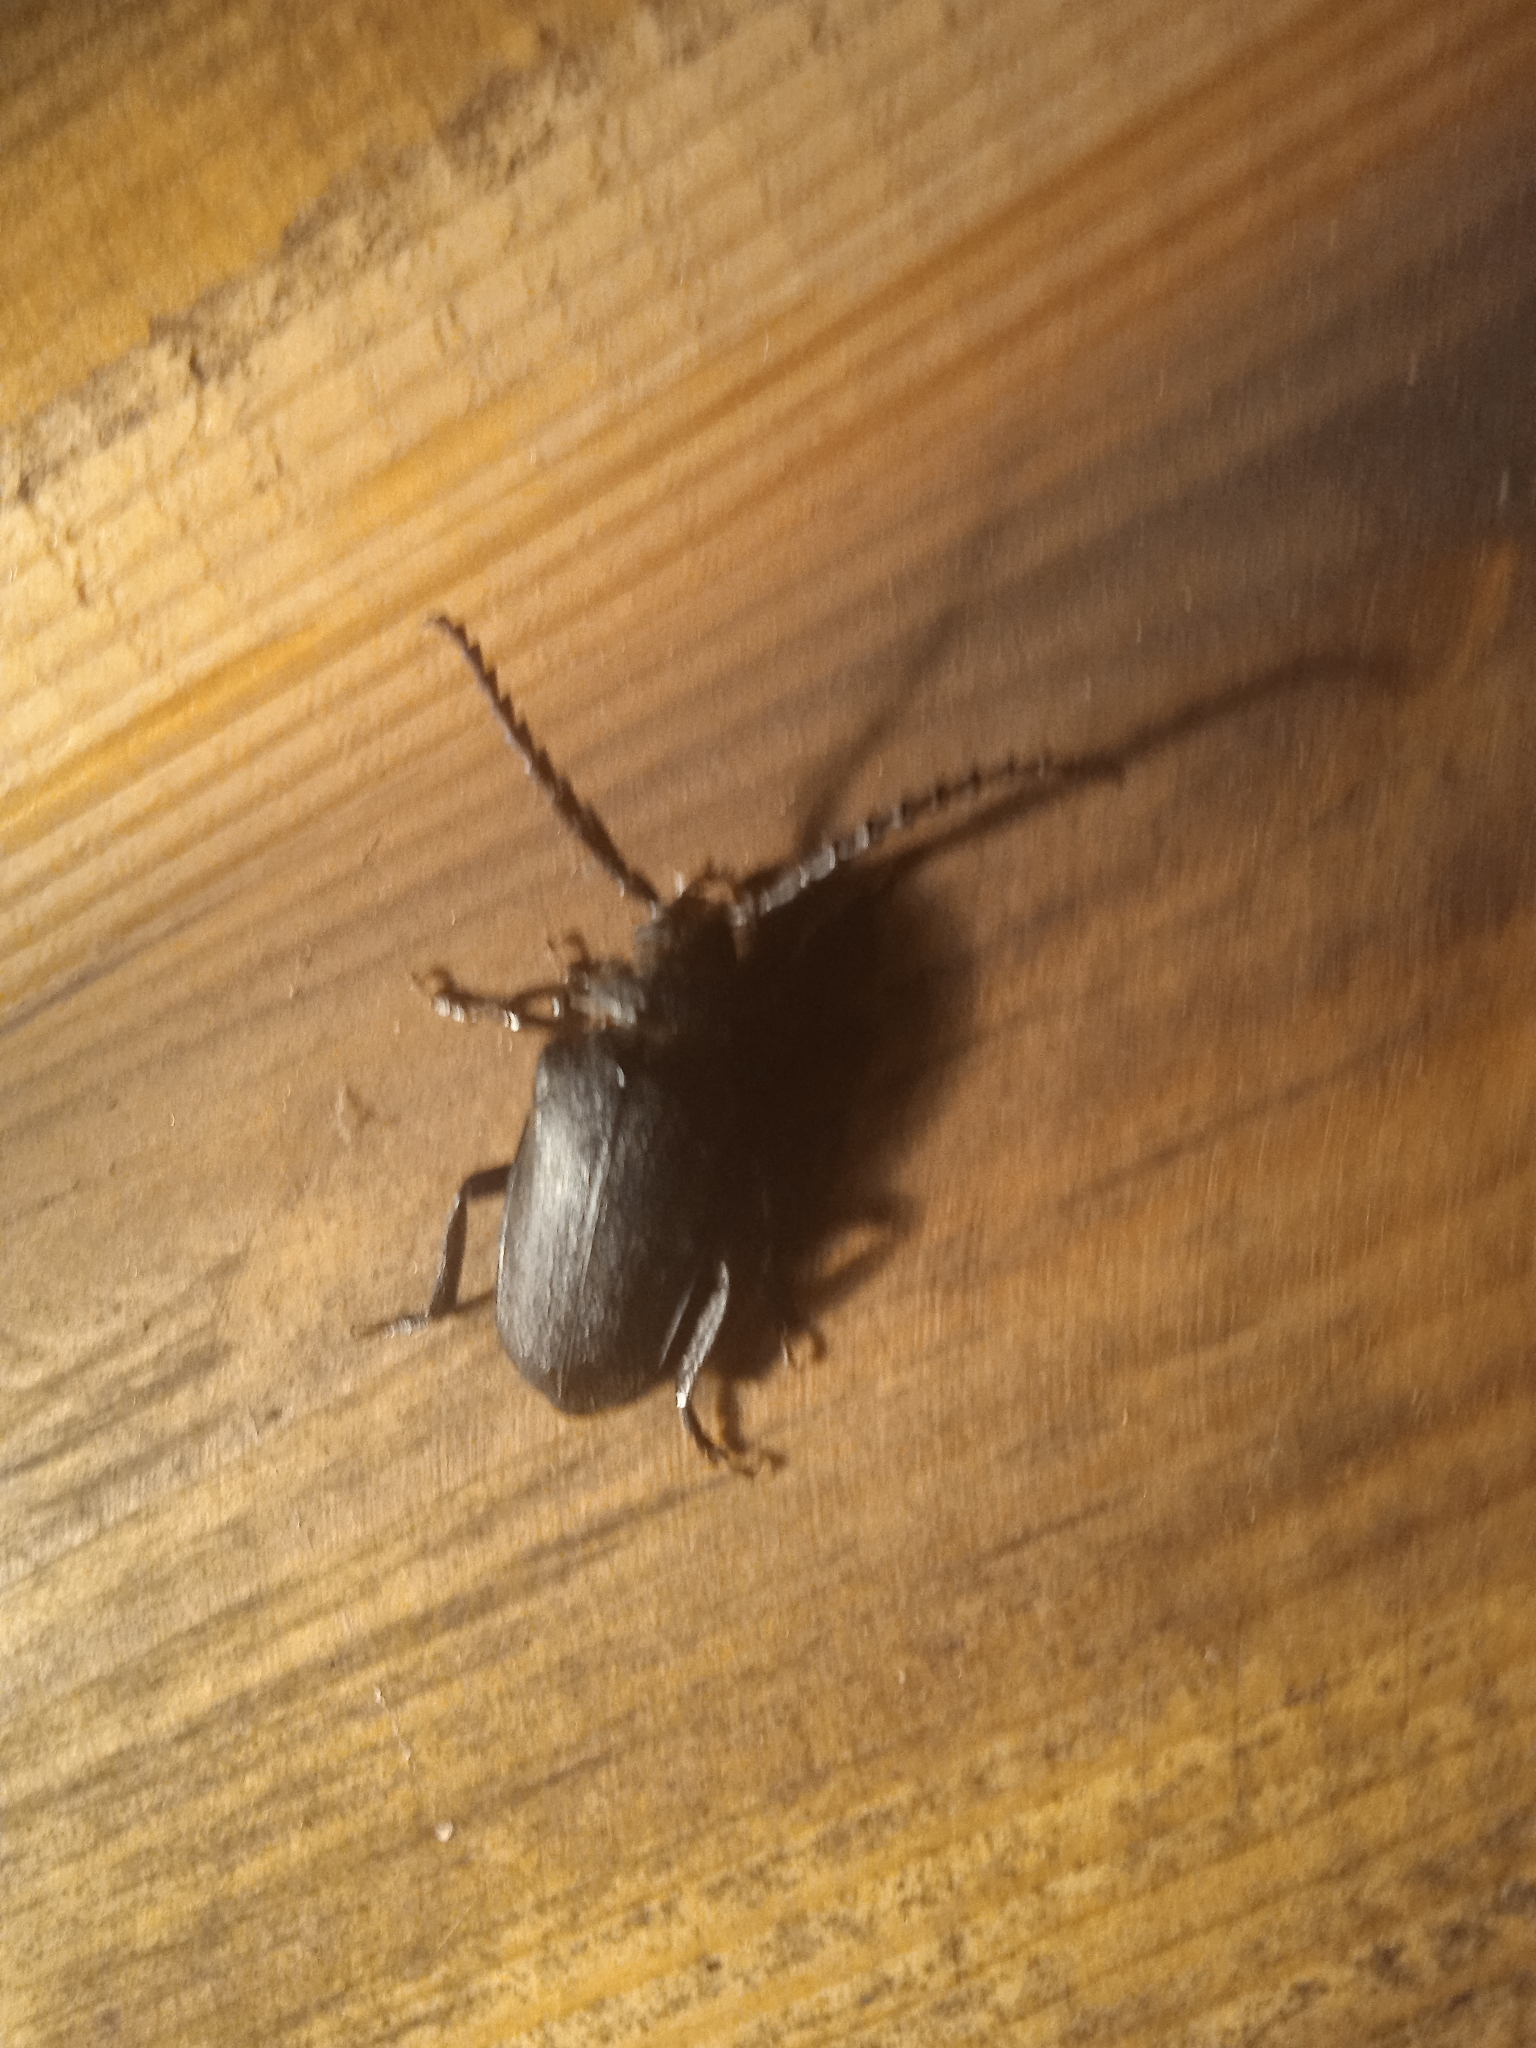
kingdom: Animalia
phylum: Arthropoda
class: Insecta
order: Coleoptera
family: Cerambycidae
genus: Prionus
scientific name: Prionus coriarius
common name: Tanner beetle
